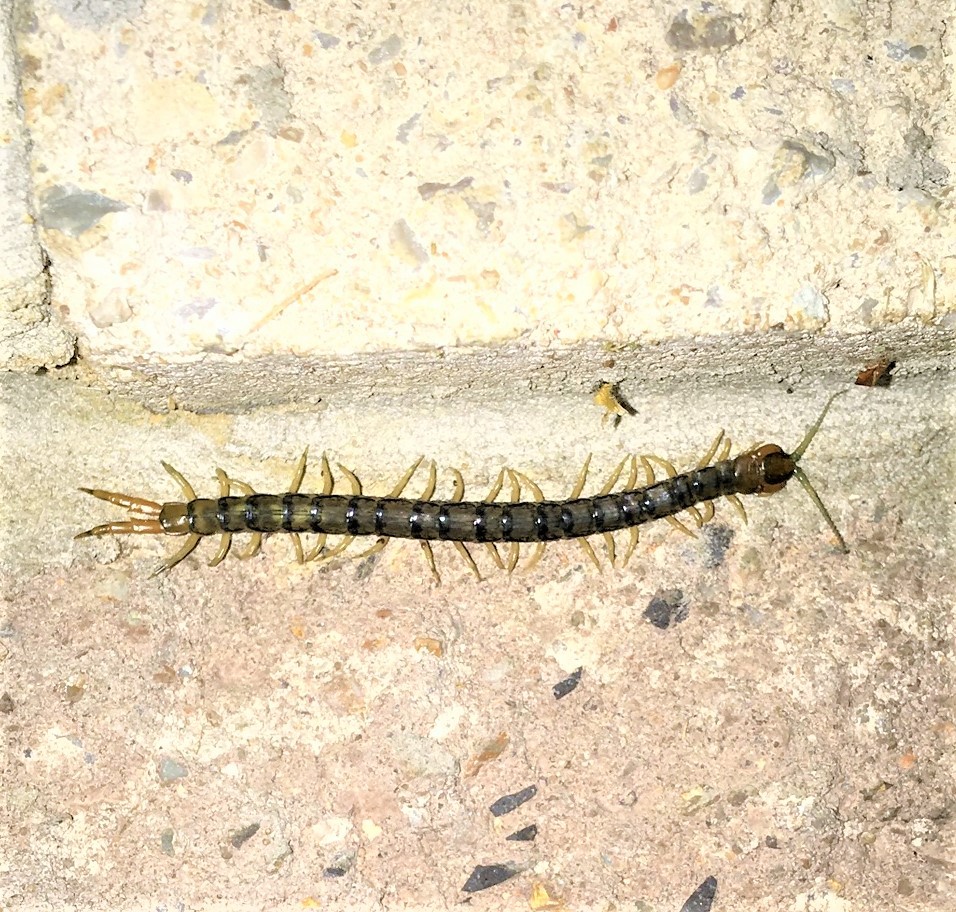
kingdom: Animalia
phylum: Arthropoda
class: Chilopoda
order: Scolopendromorpha
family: Scolopendridae
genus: Hemiscolopendra
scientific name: Hemiscolopendra marginata
